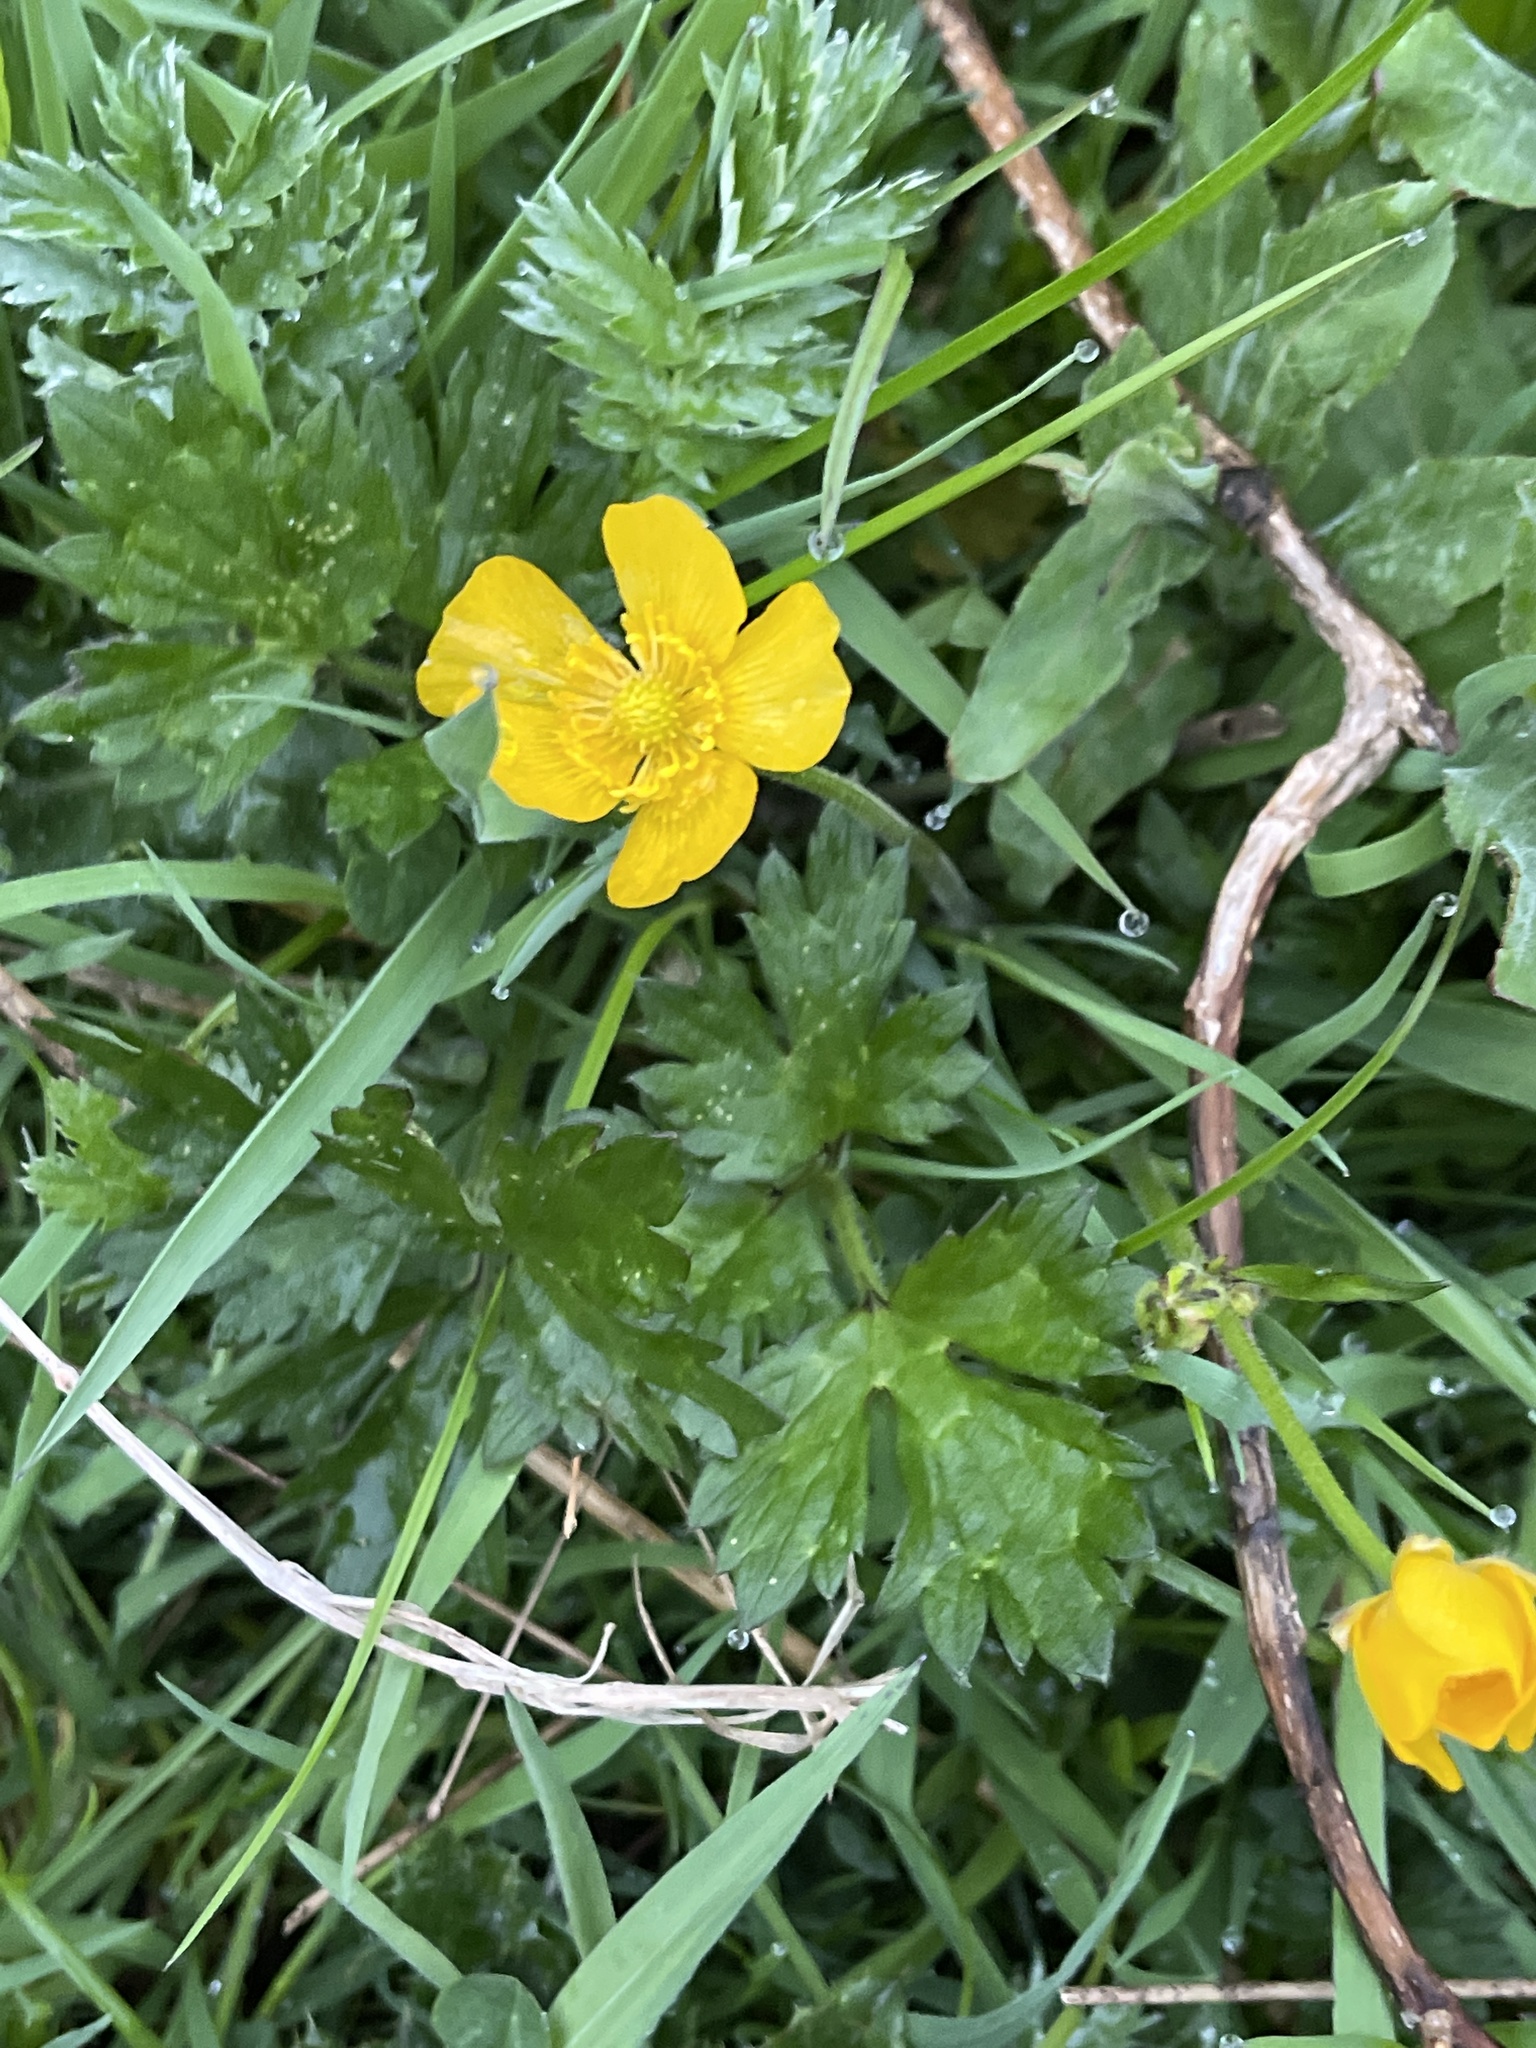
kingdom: Plantae
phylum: Tracheophyta
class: Magnoliopsida
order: Ranunculales
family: Ranunculaceae
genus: Ranunculus
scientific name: Ranunculus repens
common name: Creeping buttercup
